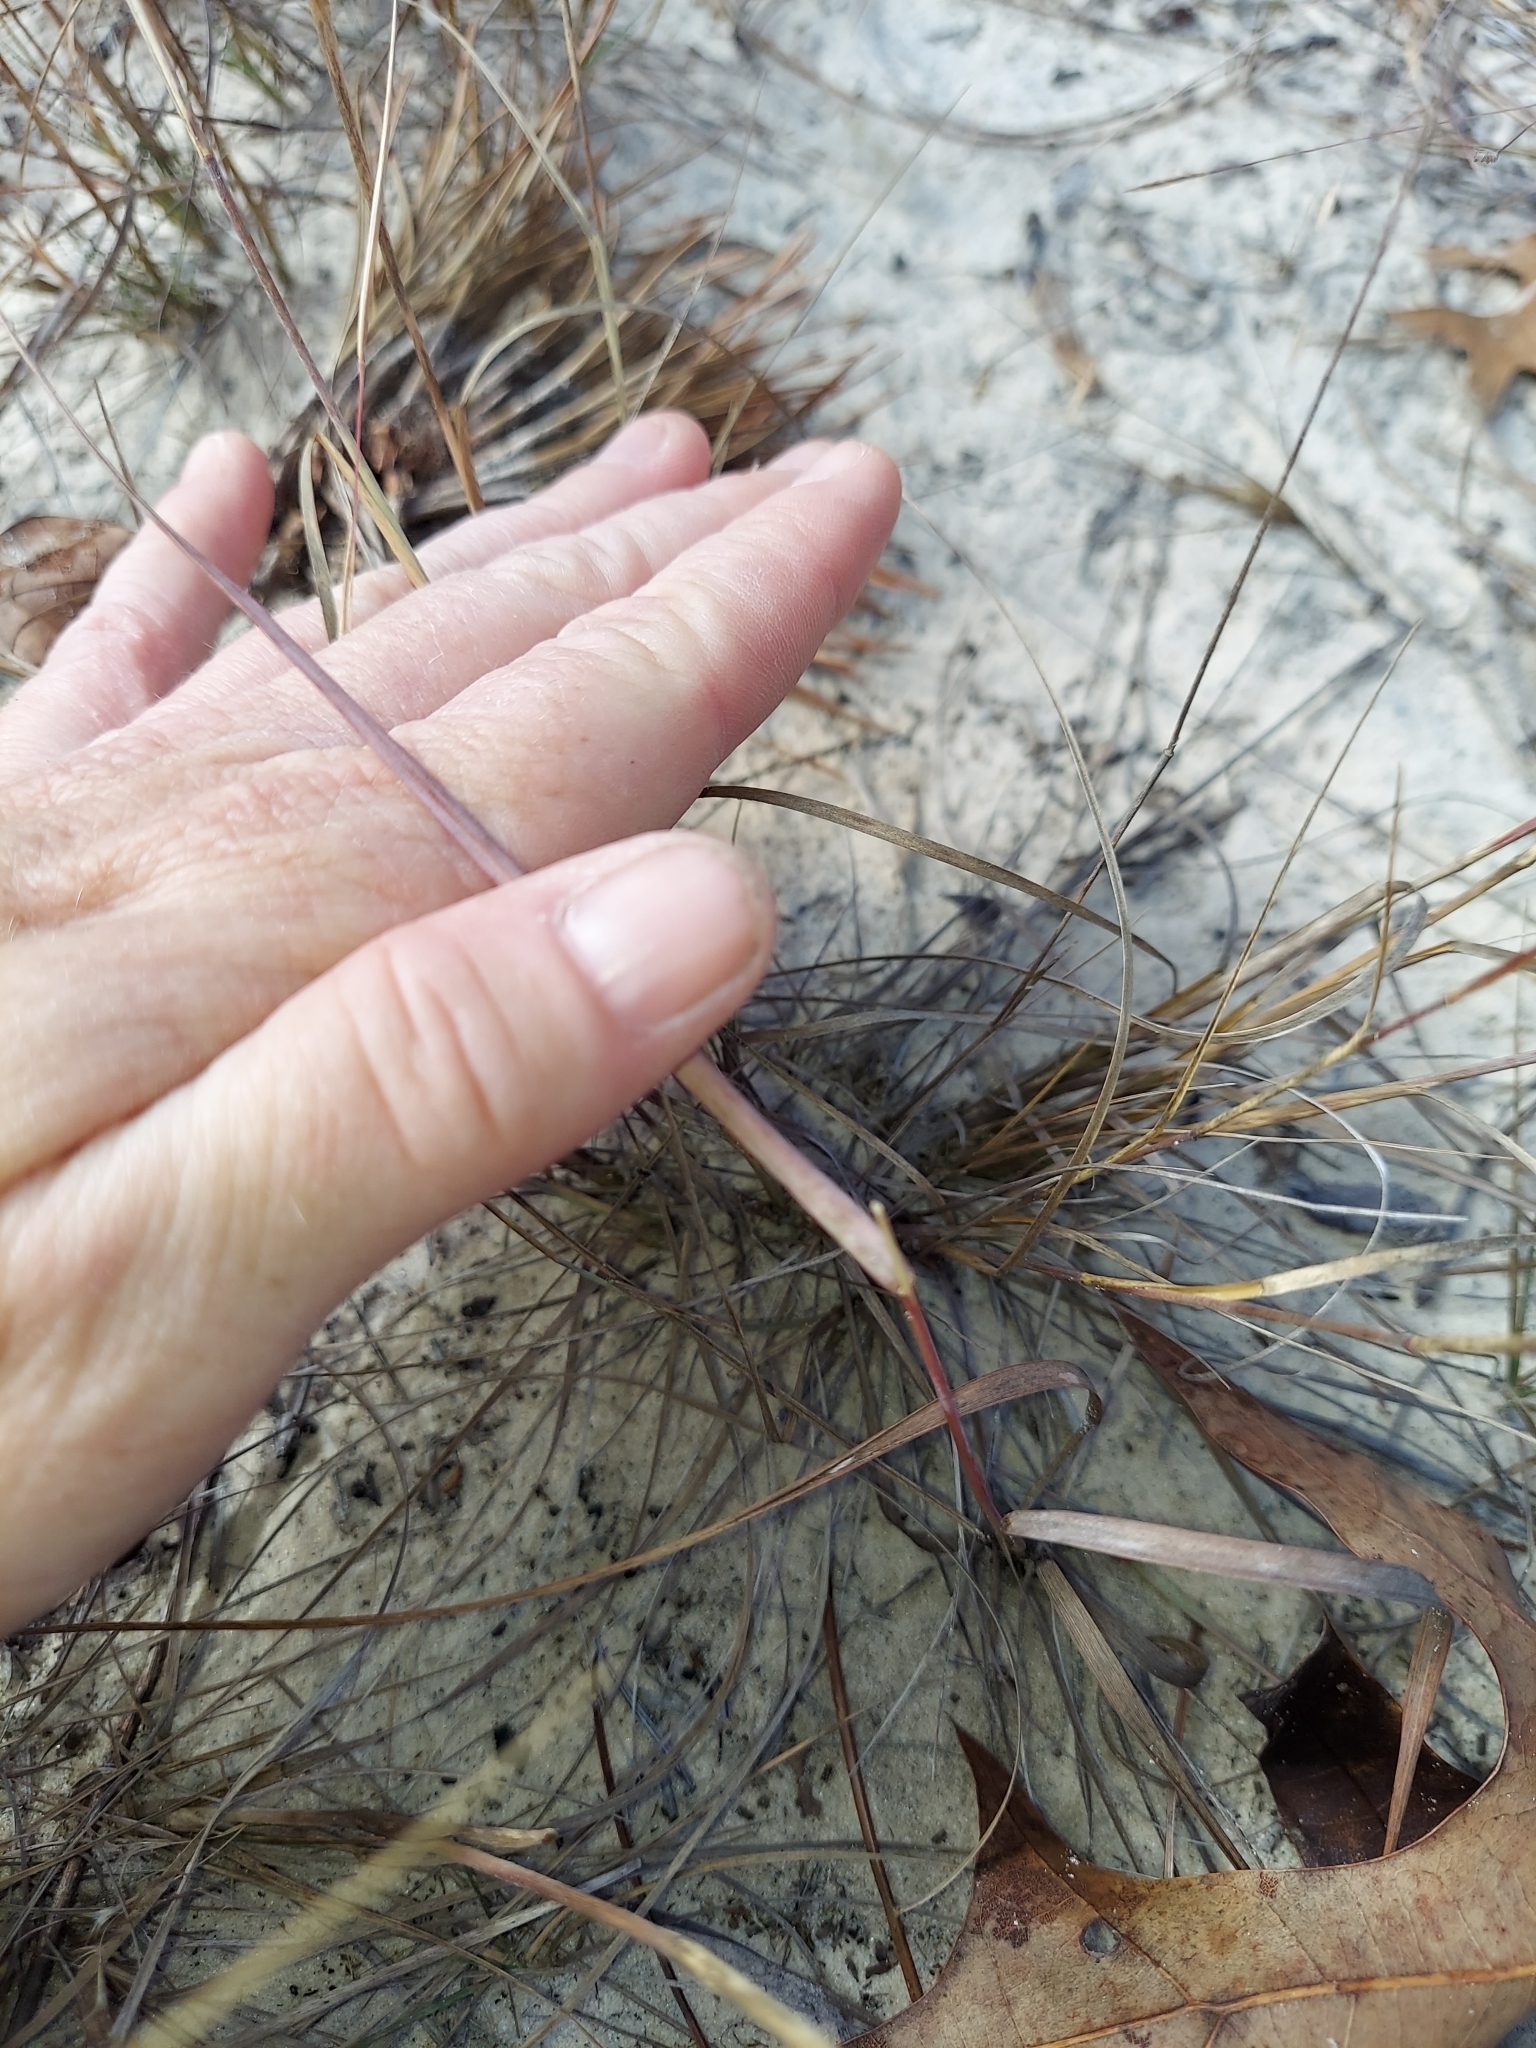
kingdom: Plantae
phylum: Tracheophyta
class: Liliopsida
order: Poales
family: Poaceae
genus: Triplasis
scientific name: Triplasis americana
